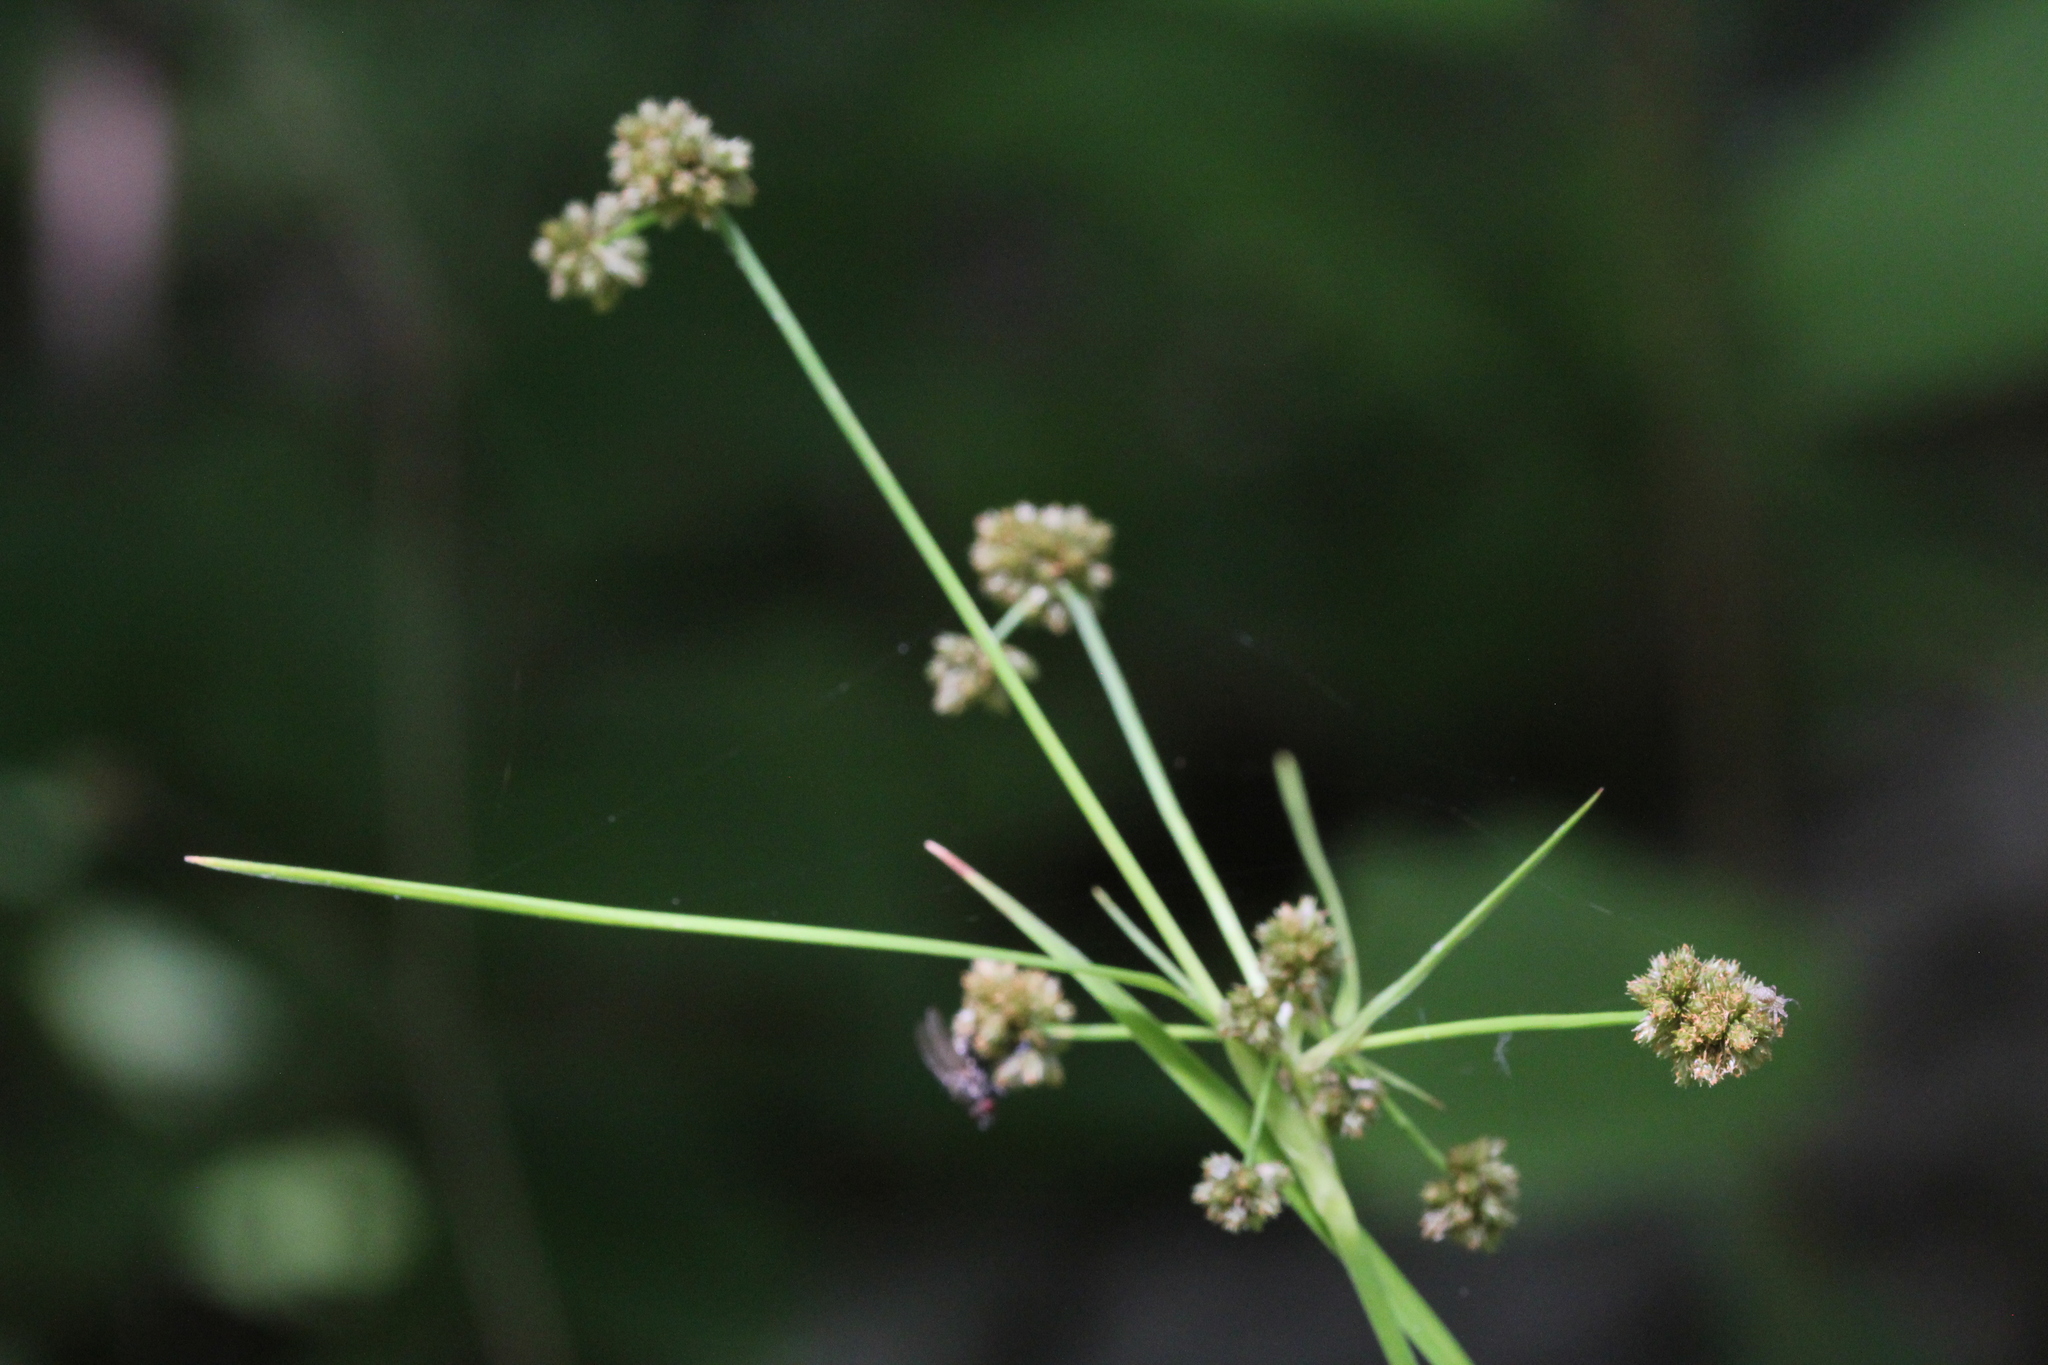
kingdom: Plantae
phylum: Tracheophyta
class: Liliopsida
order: Poales
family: Cyperaceae
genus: Scirpus
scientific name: Scirpus hattorianus
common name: Early dark-green bulrush
